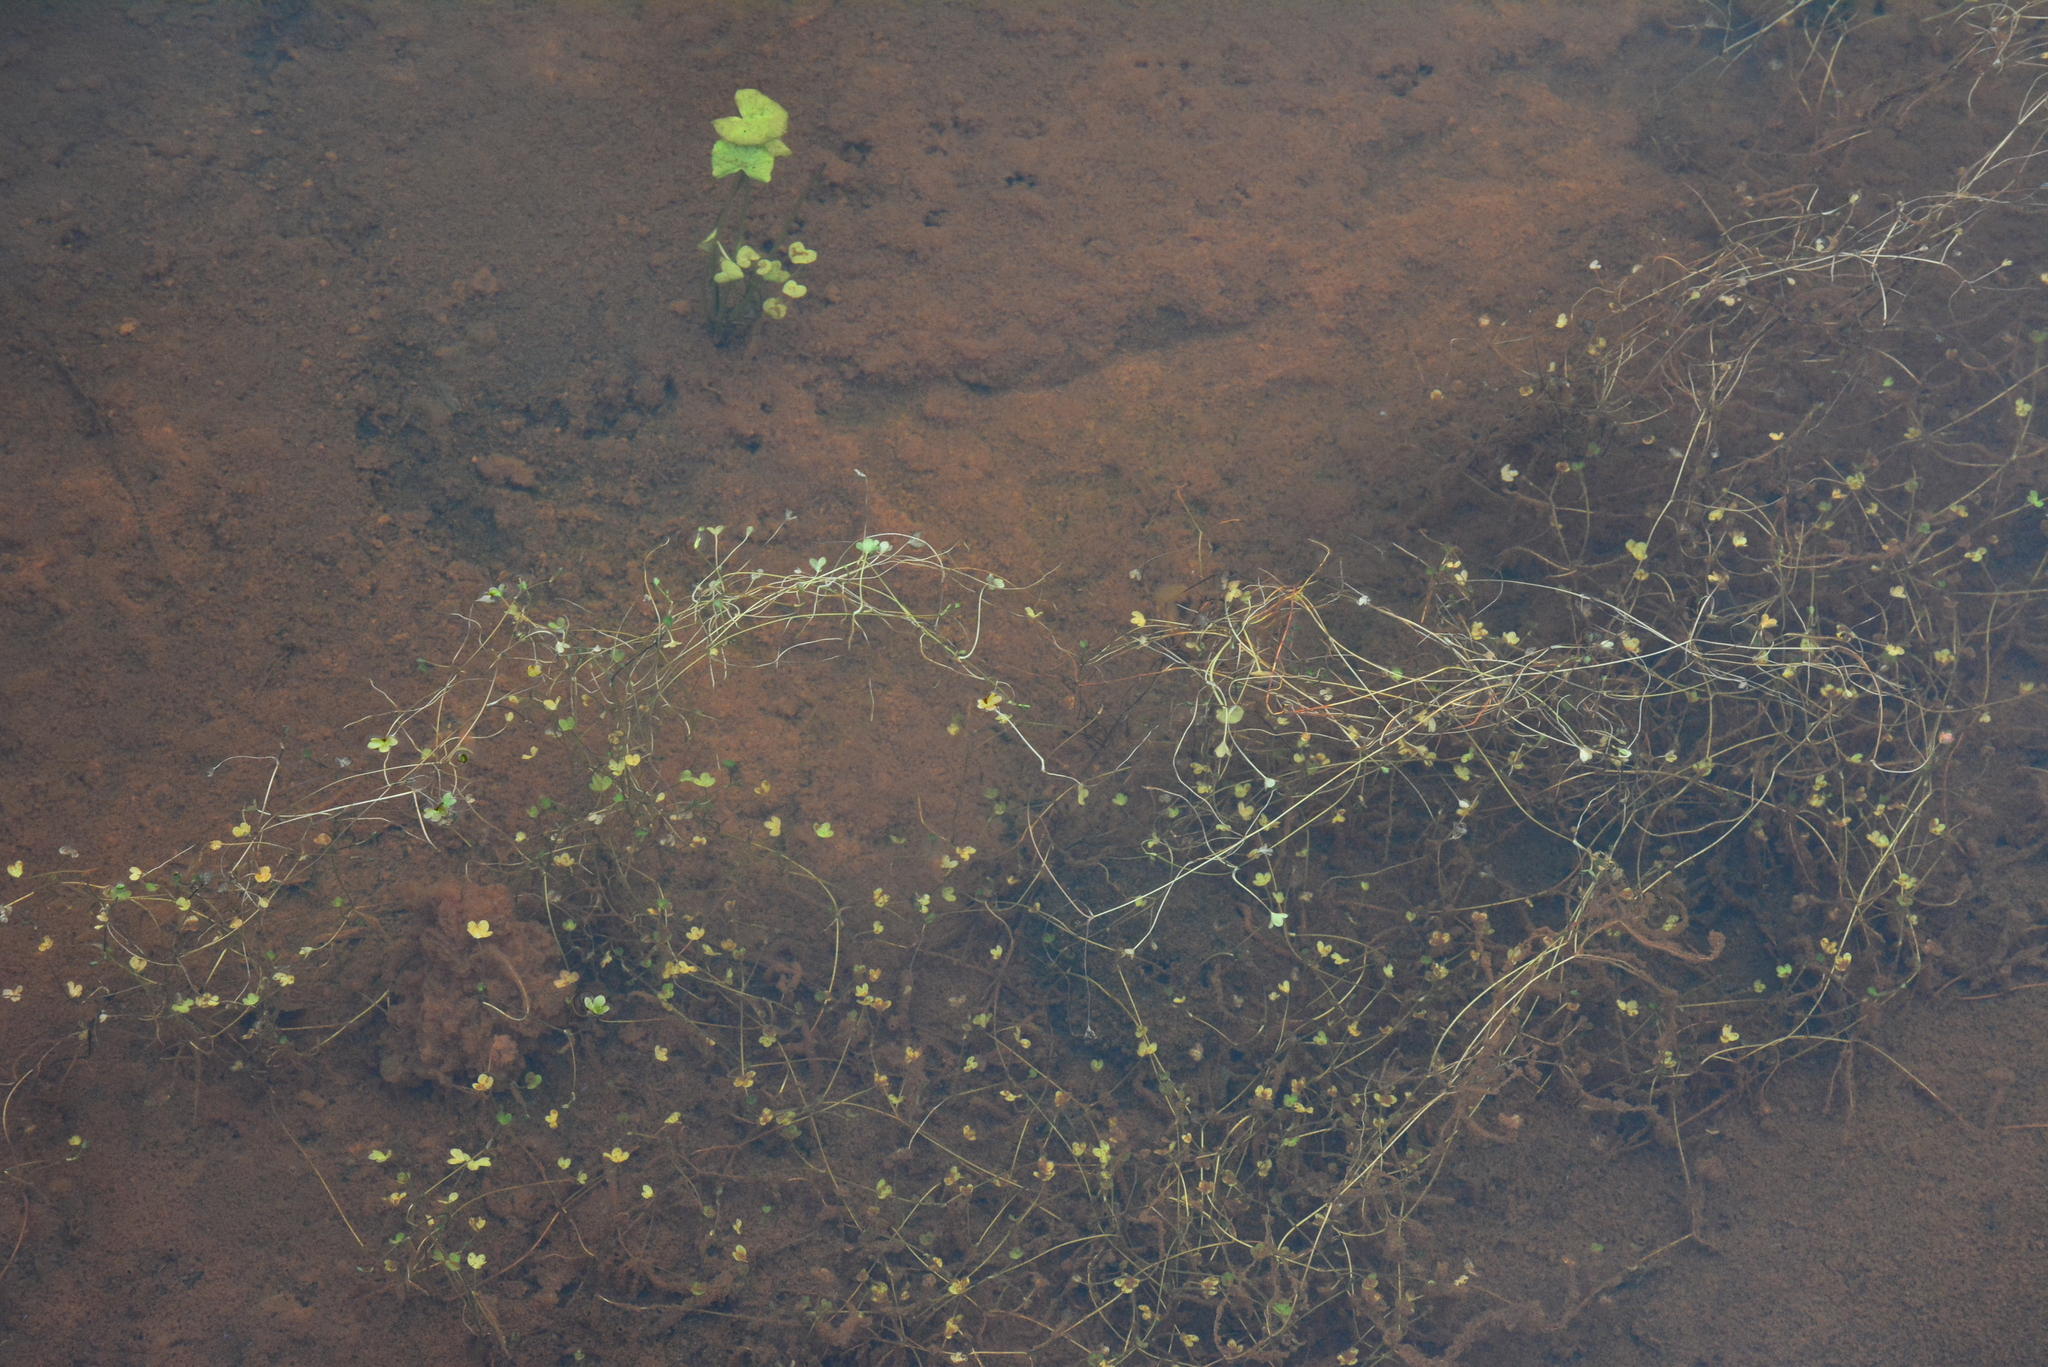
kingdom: Plantae
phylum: Tracheophyta
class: Magnoliopsida
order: Ranunculales
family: Ranunculaceae
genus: Ranunculus
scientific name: Ranunculus hyperboreus
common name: Arctic buttercup
